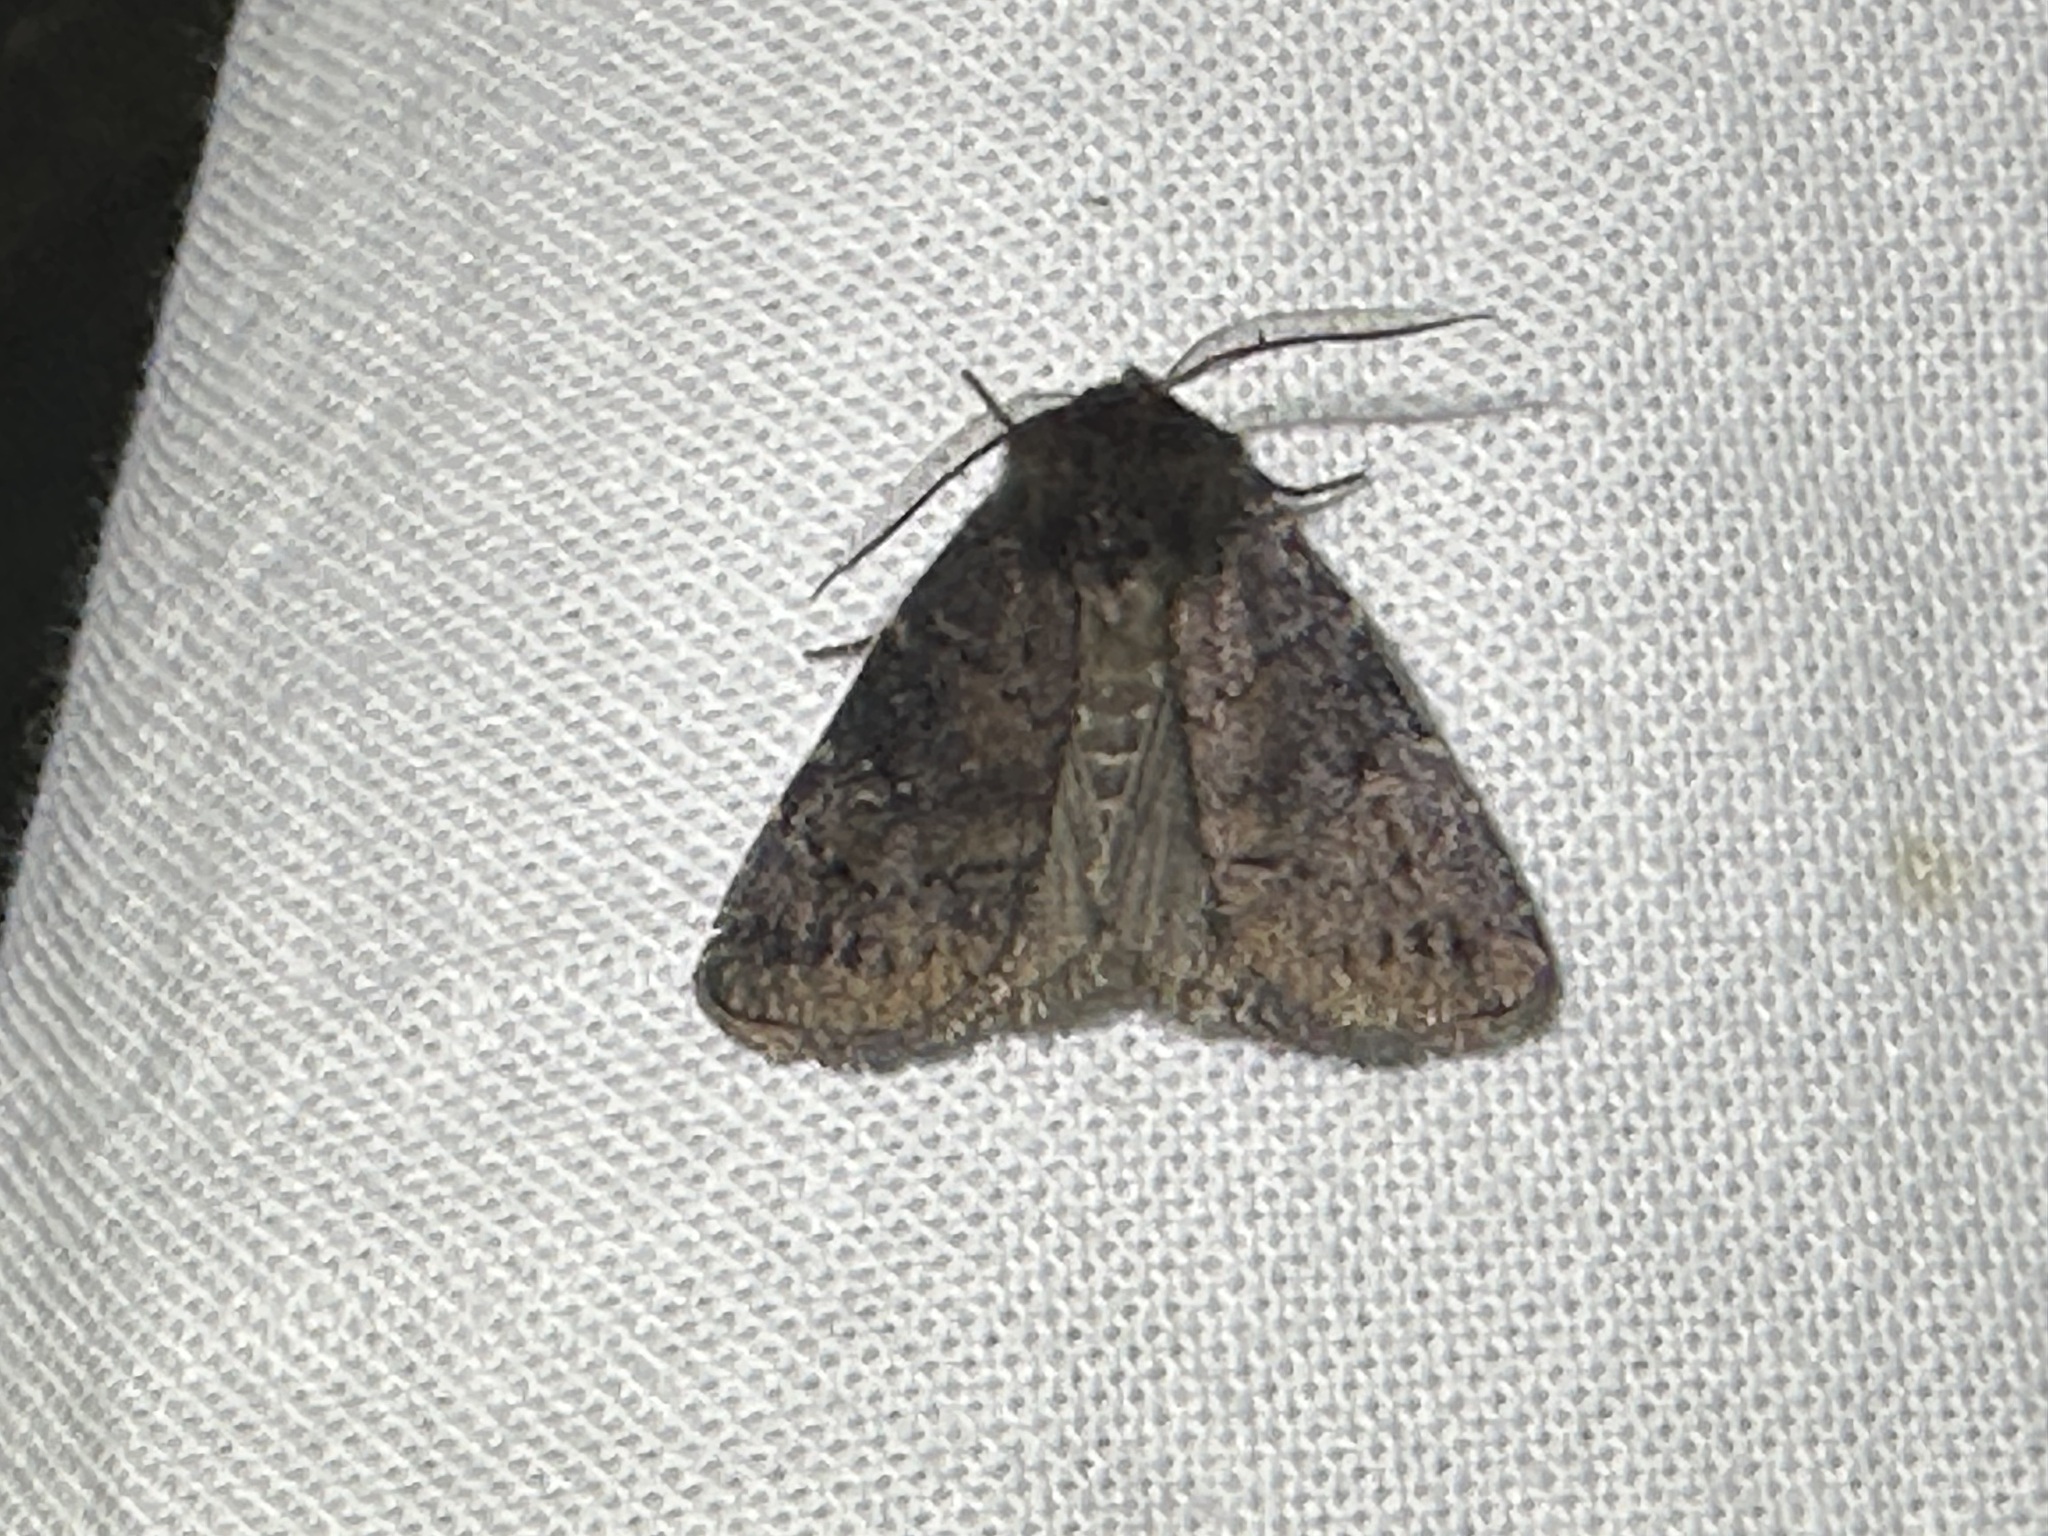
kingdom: Animalia
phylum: Arthropoda
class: Insecta
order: Lepidoptera
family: Noctuidae
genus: Charanyca
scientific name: Charanyca ferruginea
